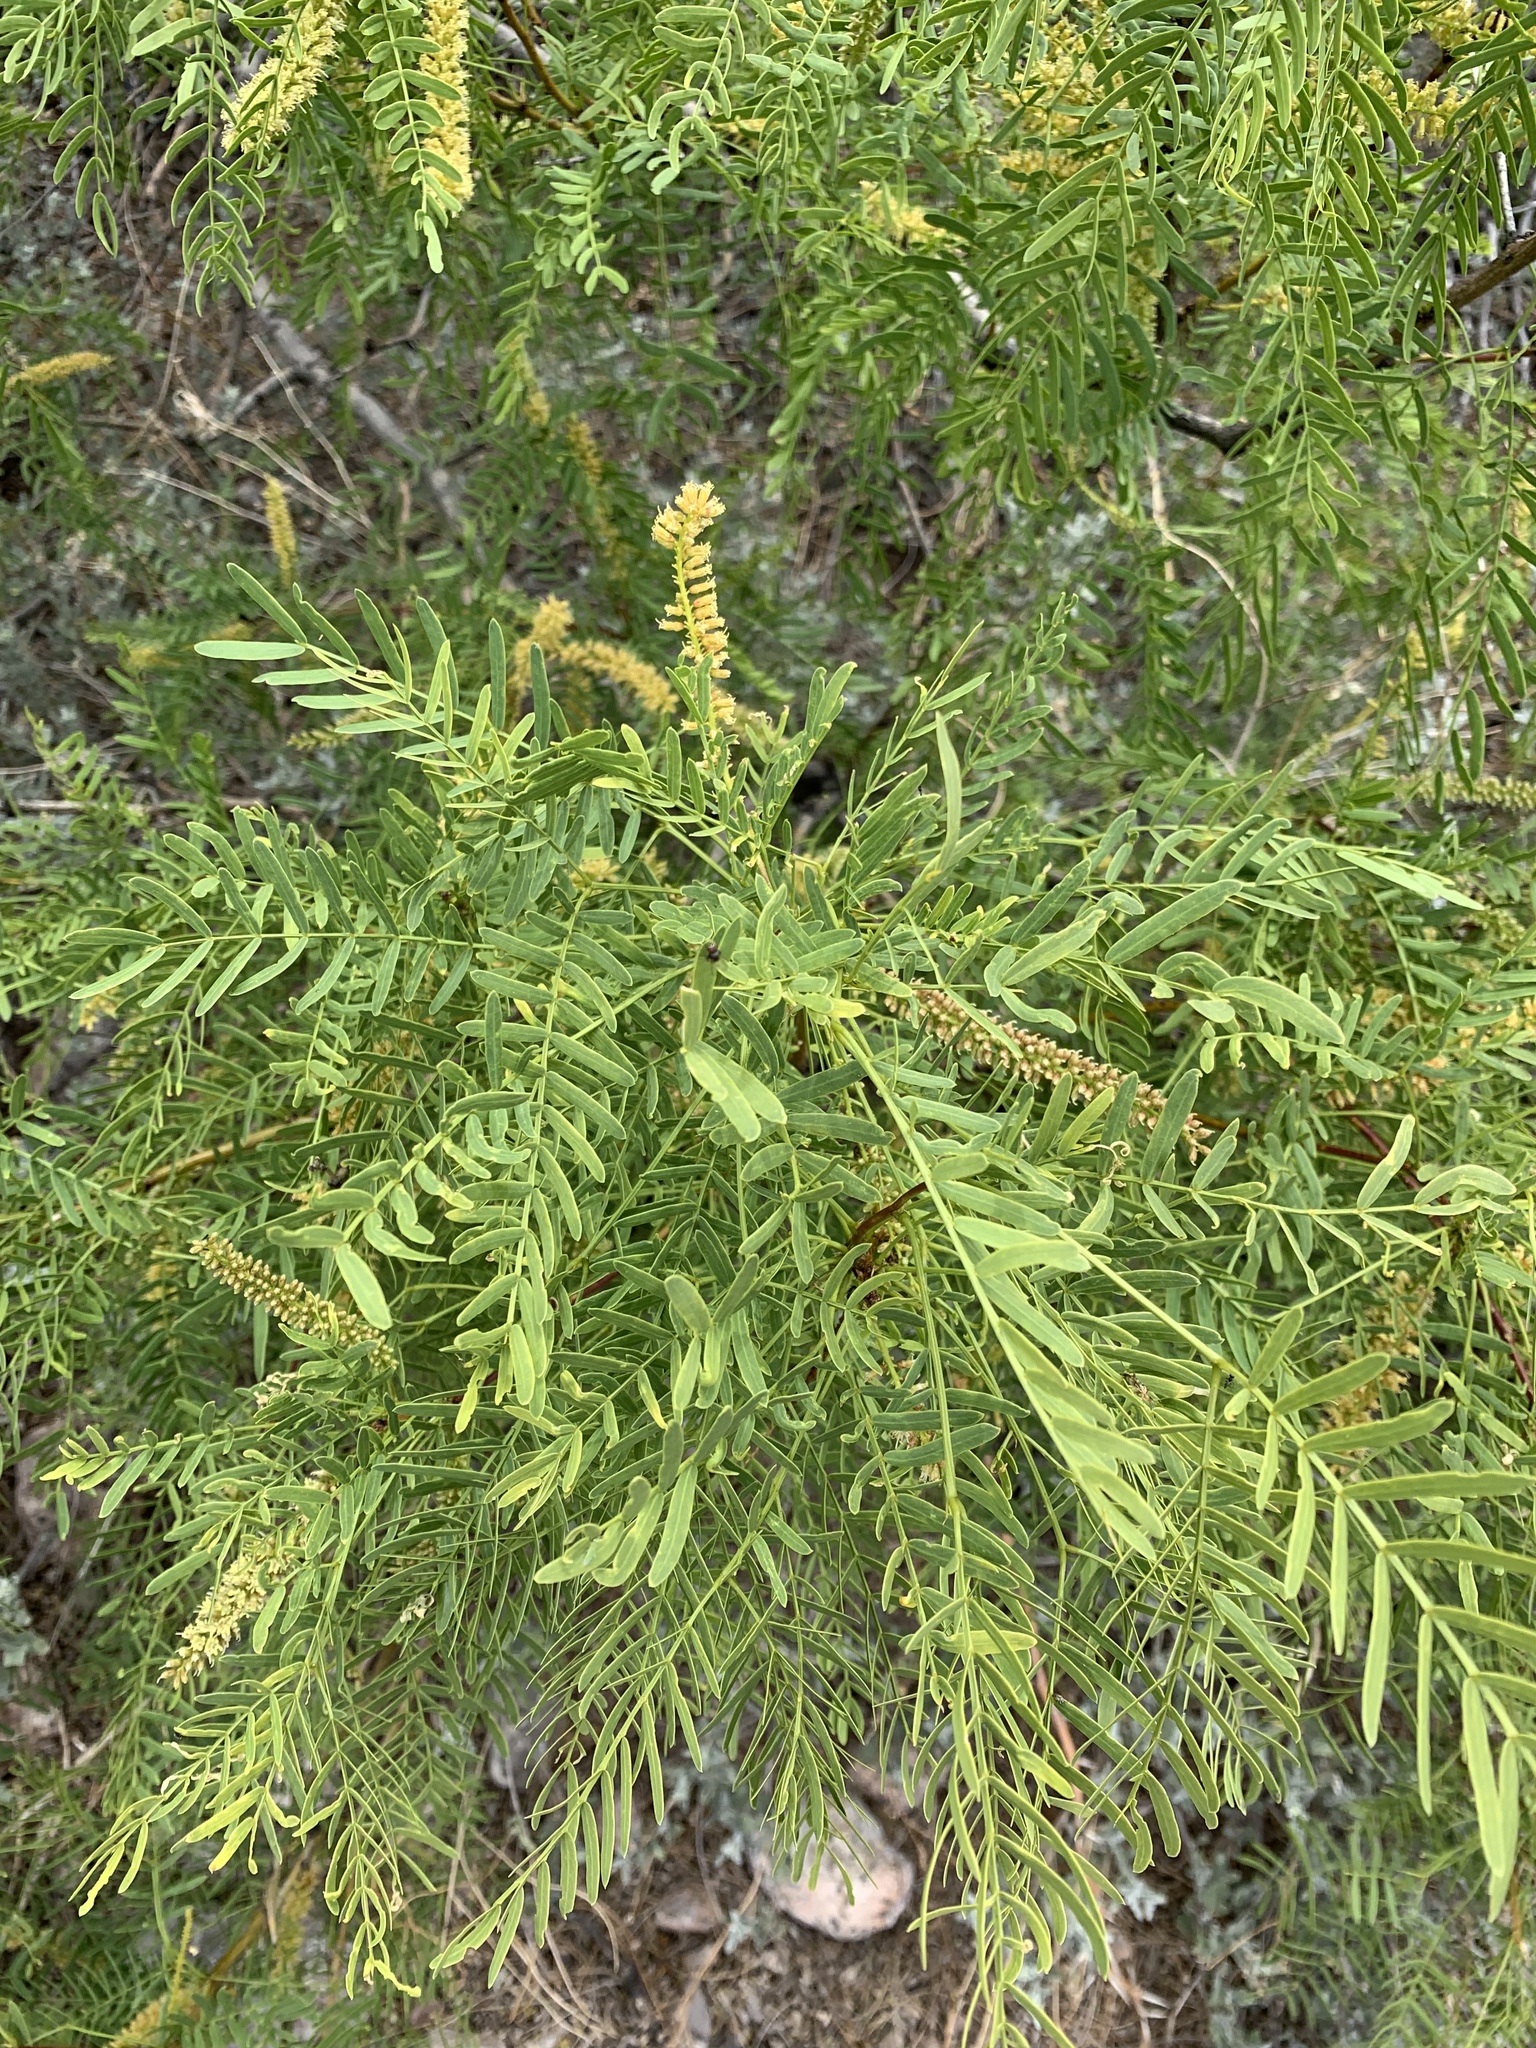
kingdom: Plantae
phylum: Tracheophyta
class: Magnoliopsida
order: Fabales
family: Fabaceae
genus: Prosopis
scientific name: Prosopis glandulosa
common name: Honey mesquite
